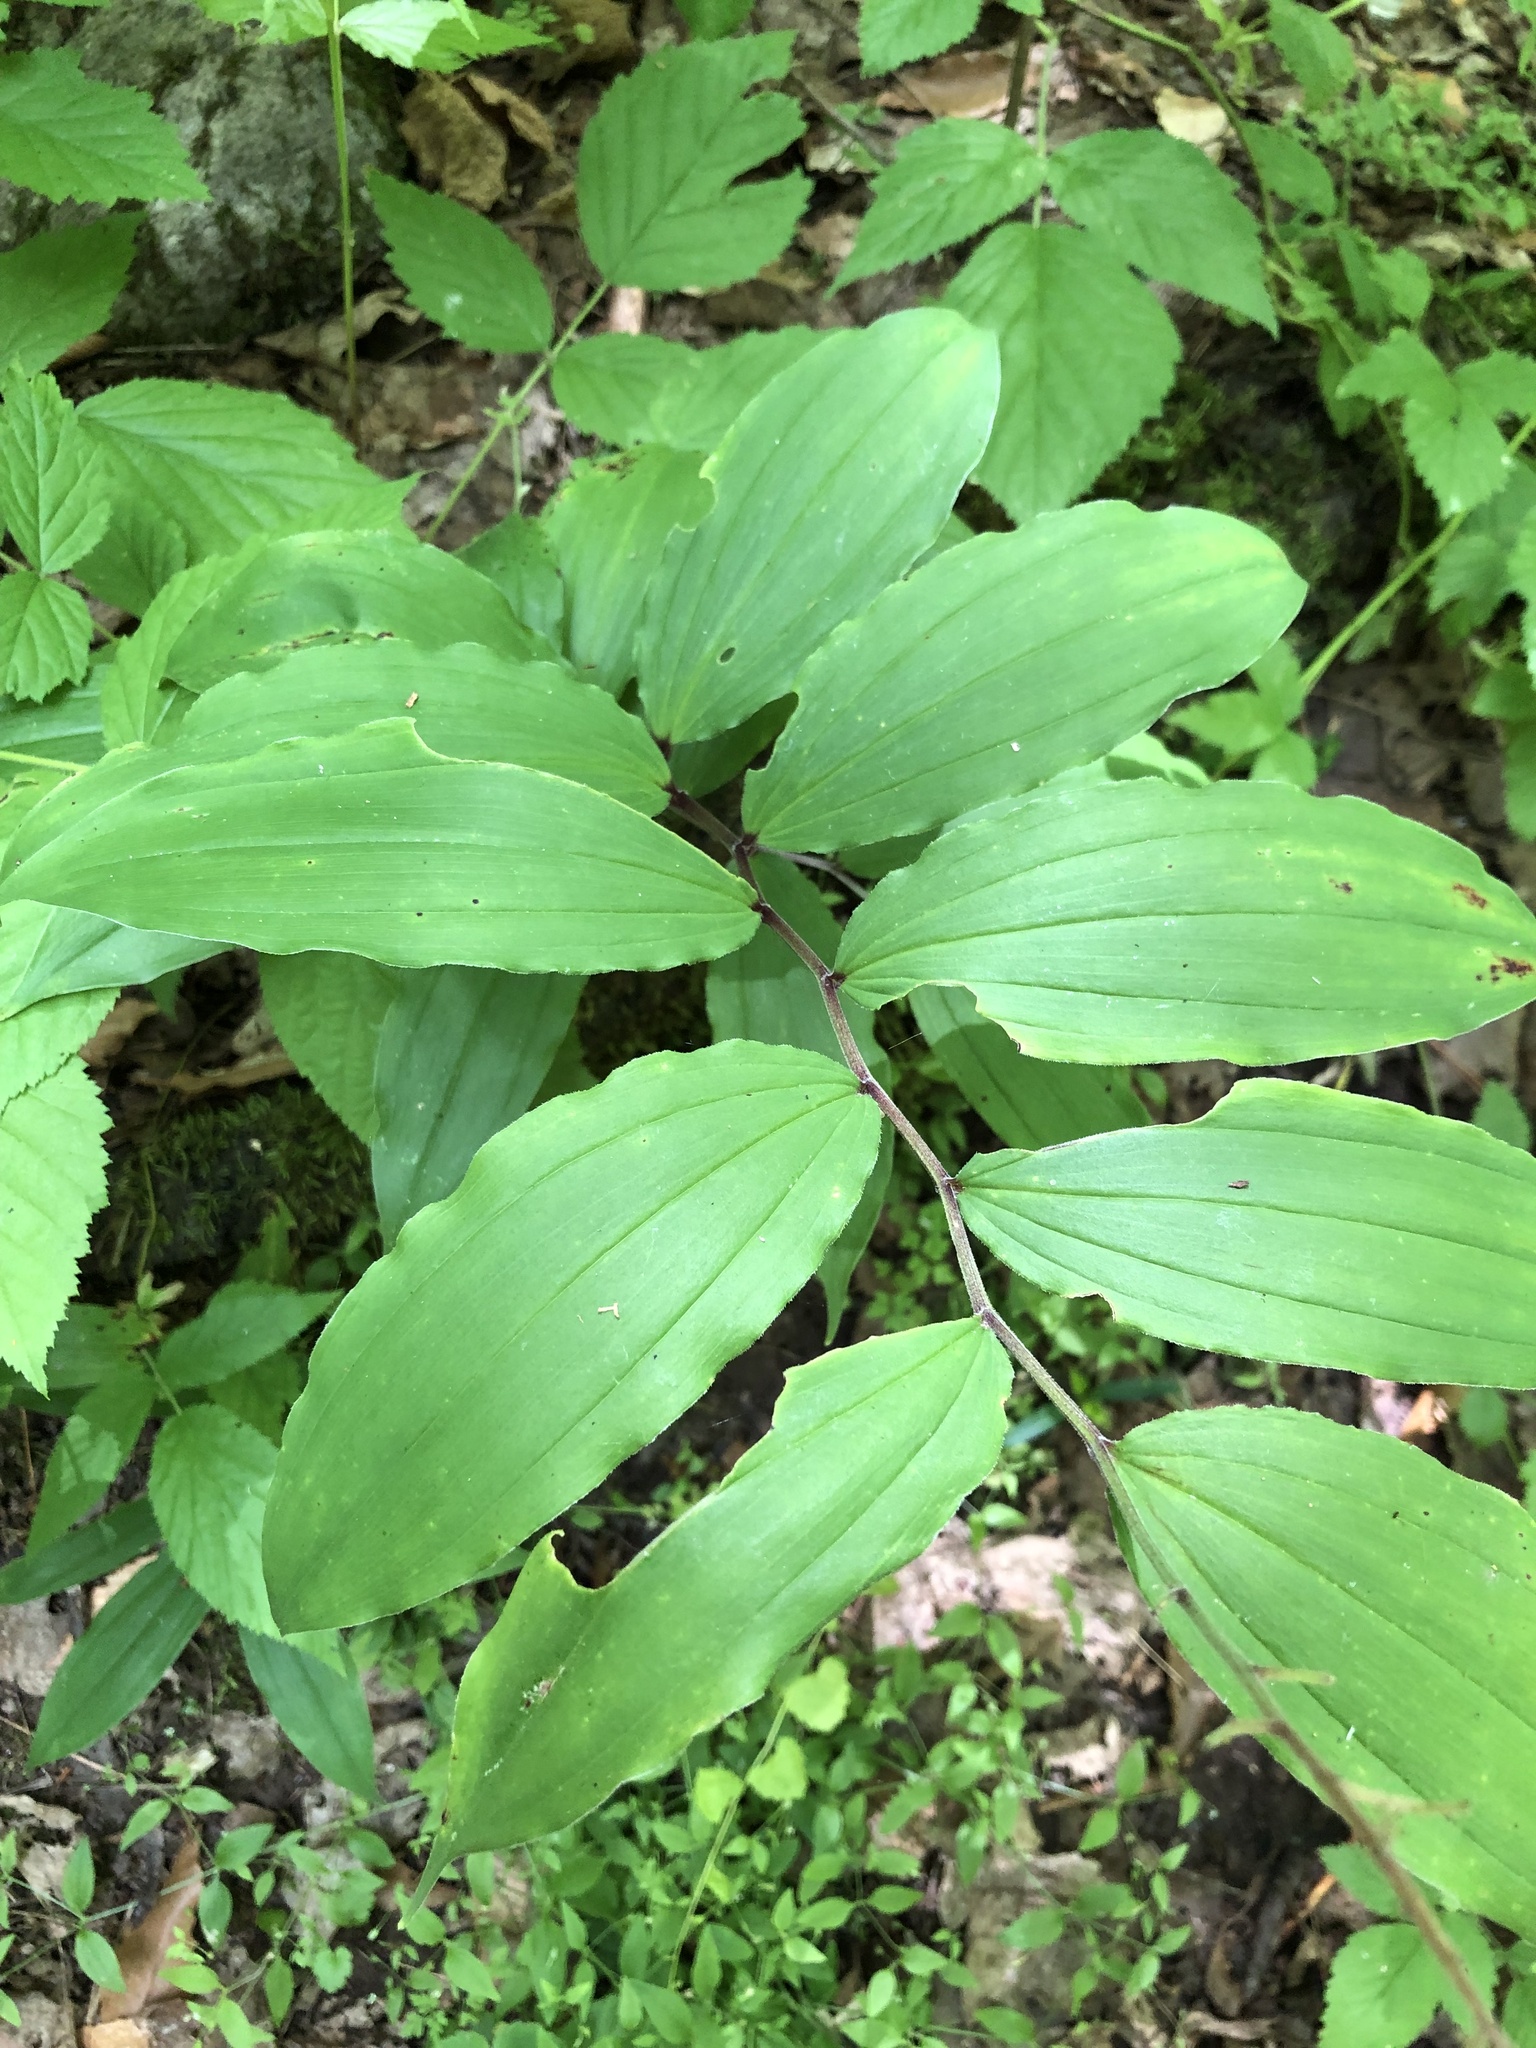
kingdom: Plantae
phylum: Tracheophyta
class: Liliopsida
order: Asparagales
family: Asparagaceae
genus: Maianthemum
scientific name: Maianthemum racemosum
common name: False spikenard
